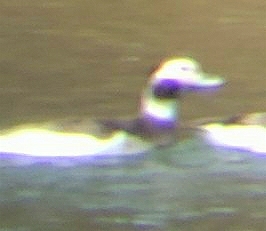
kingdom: Animalia
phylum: Chordata
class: Aves
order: Anseriformes
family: Anatidae
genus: Clangula
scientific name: Clangula hyemalis
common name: Long-tailed duck
